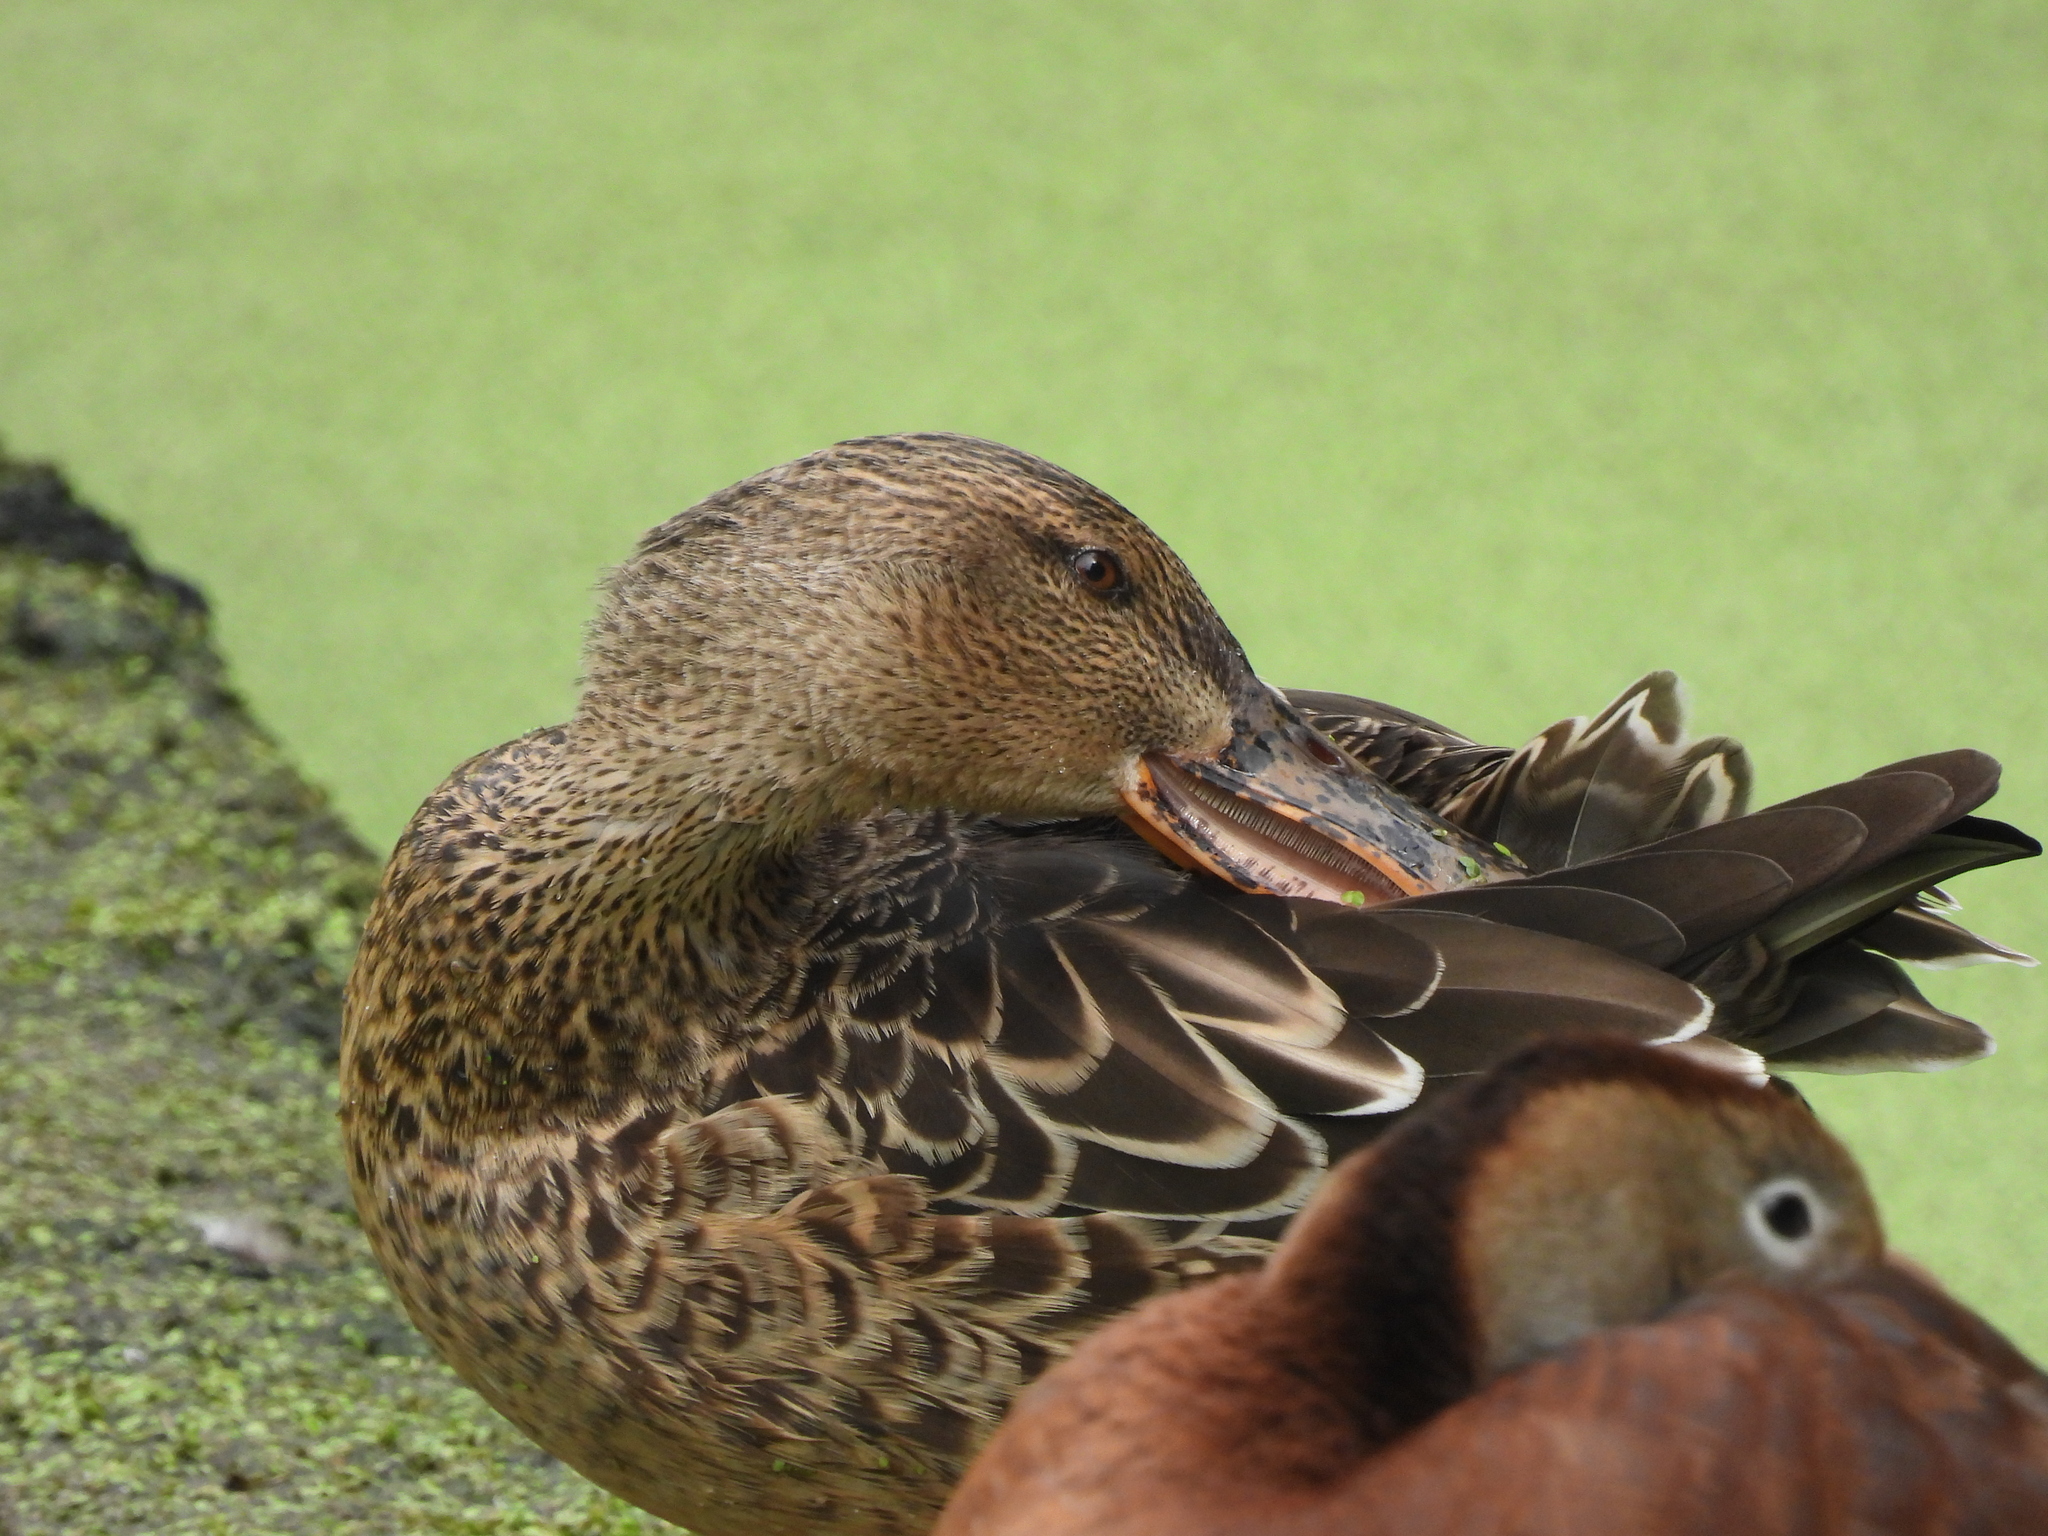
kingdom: Animalia
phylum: Chordata
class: Aves
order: Anseriformes
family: Anatidae
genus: Spatula
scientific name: Spatula clypeata
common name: Northern shoveler
